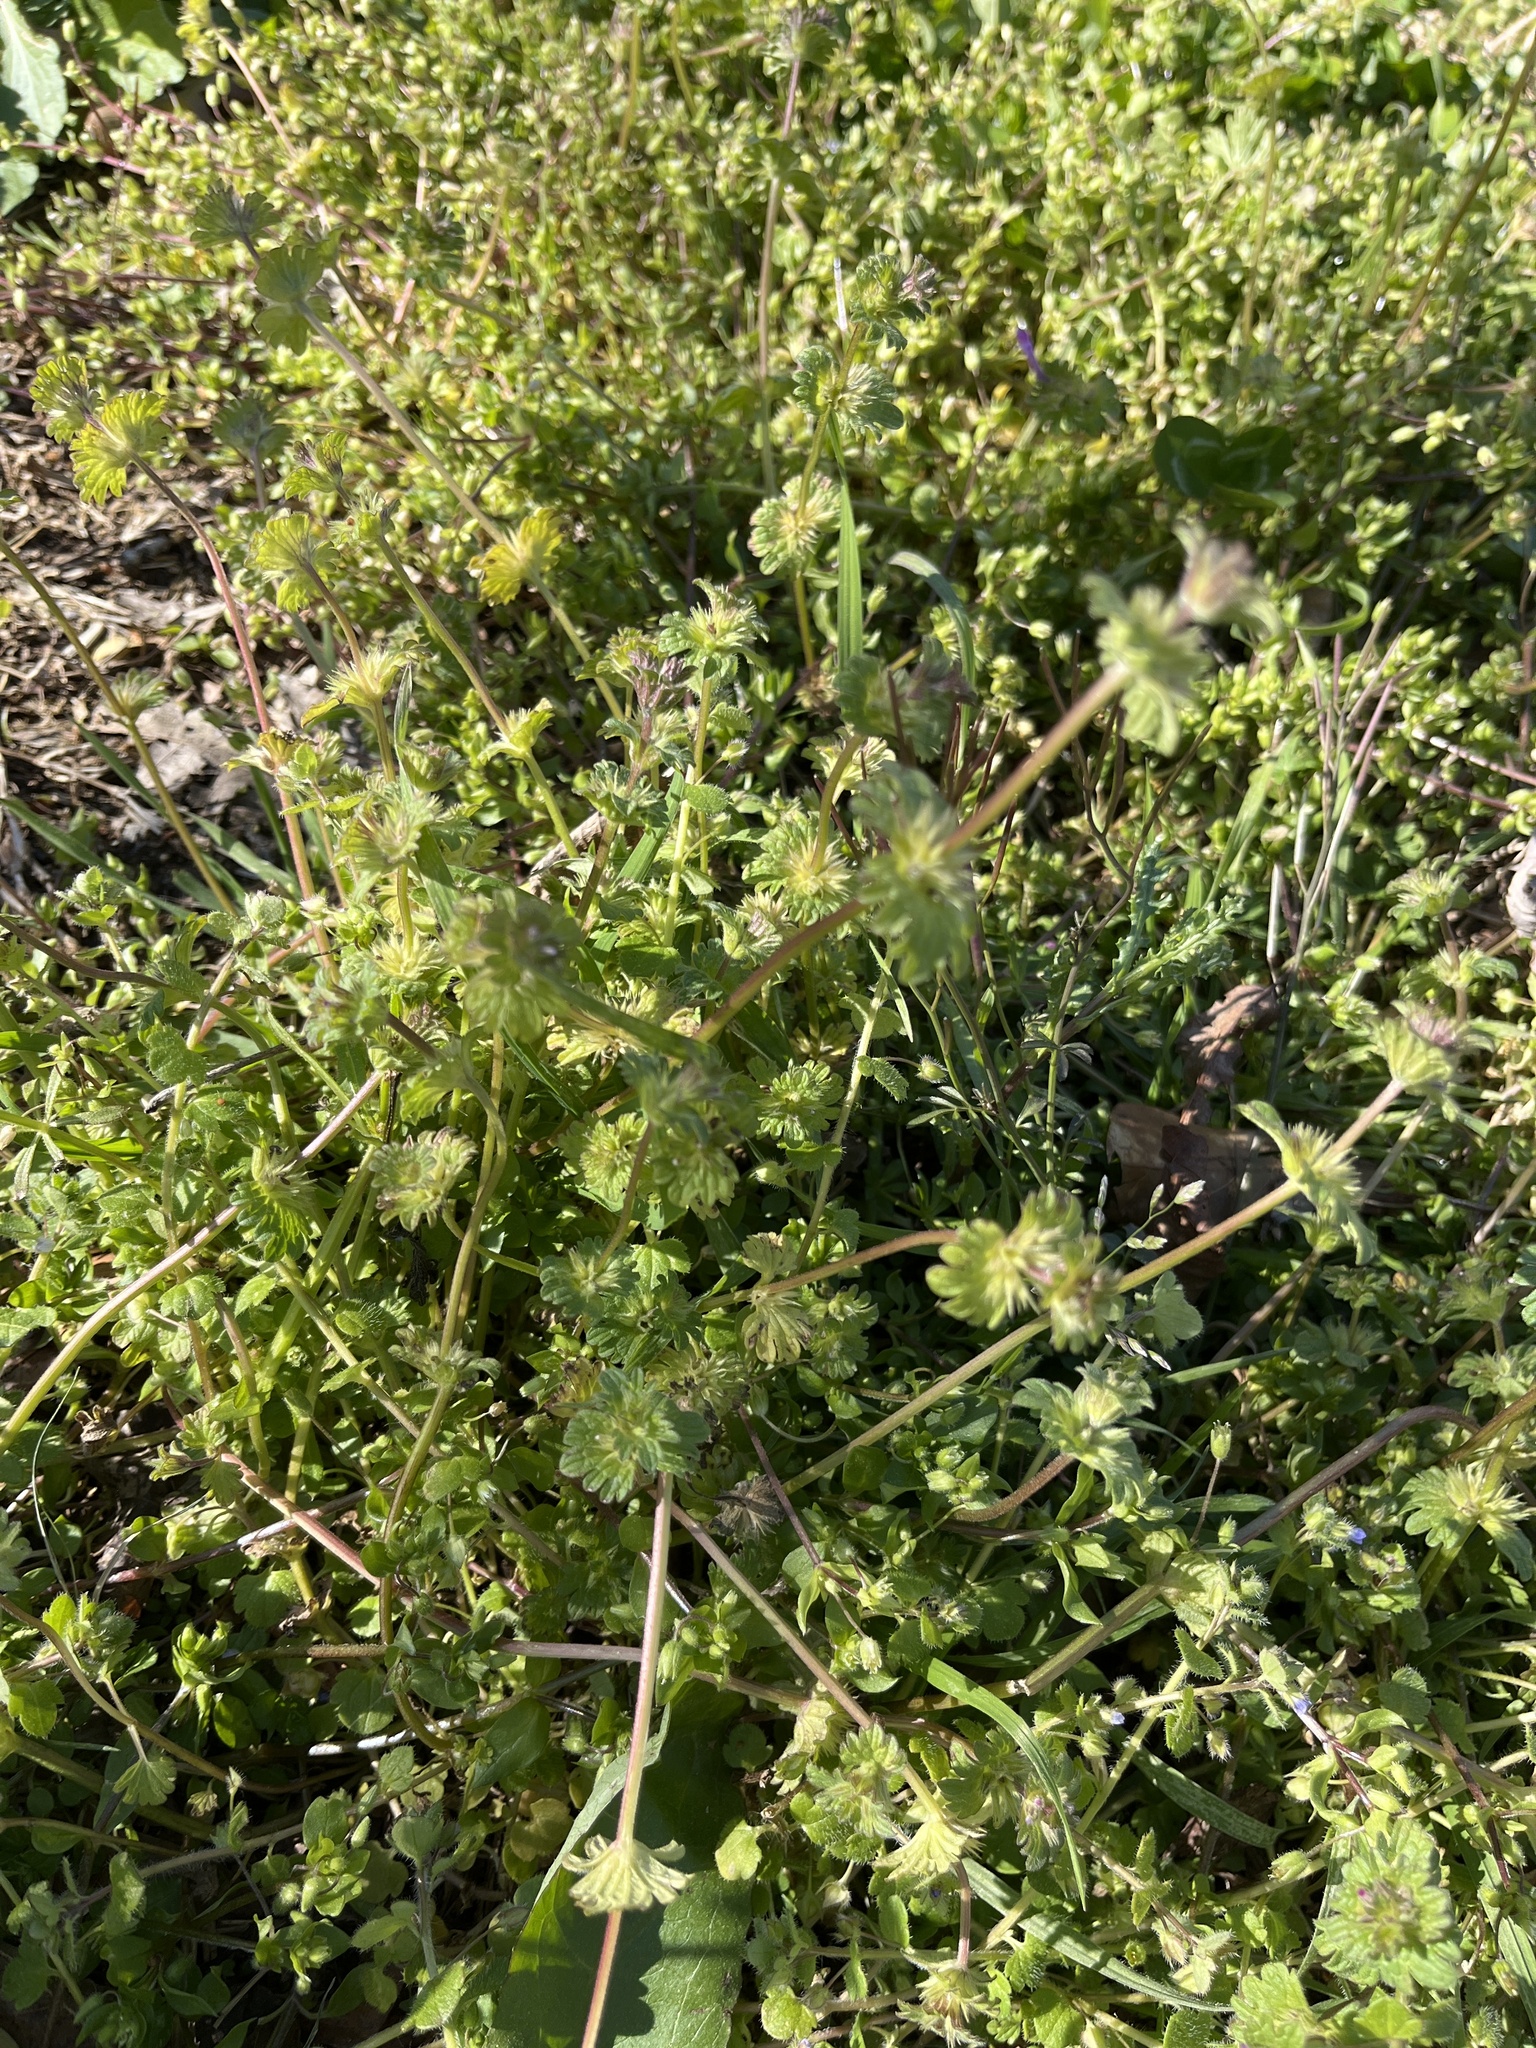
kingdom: Plantae
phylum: Tracheophyta
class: Magnoliopsida
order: Lamiales
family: Lamiaceae
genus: Lamium
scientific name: Lamium amplexicaule
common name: Henbit dead-nettle
